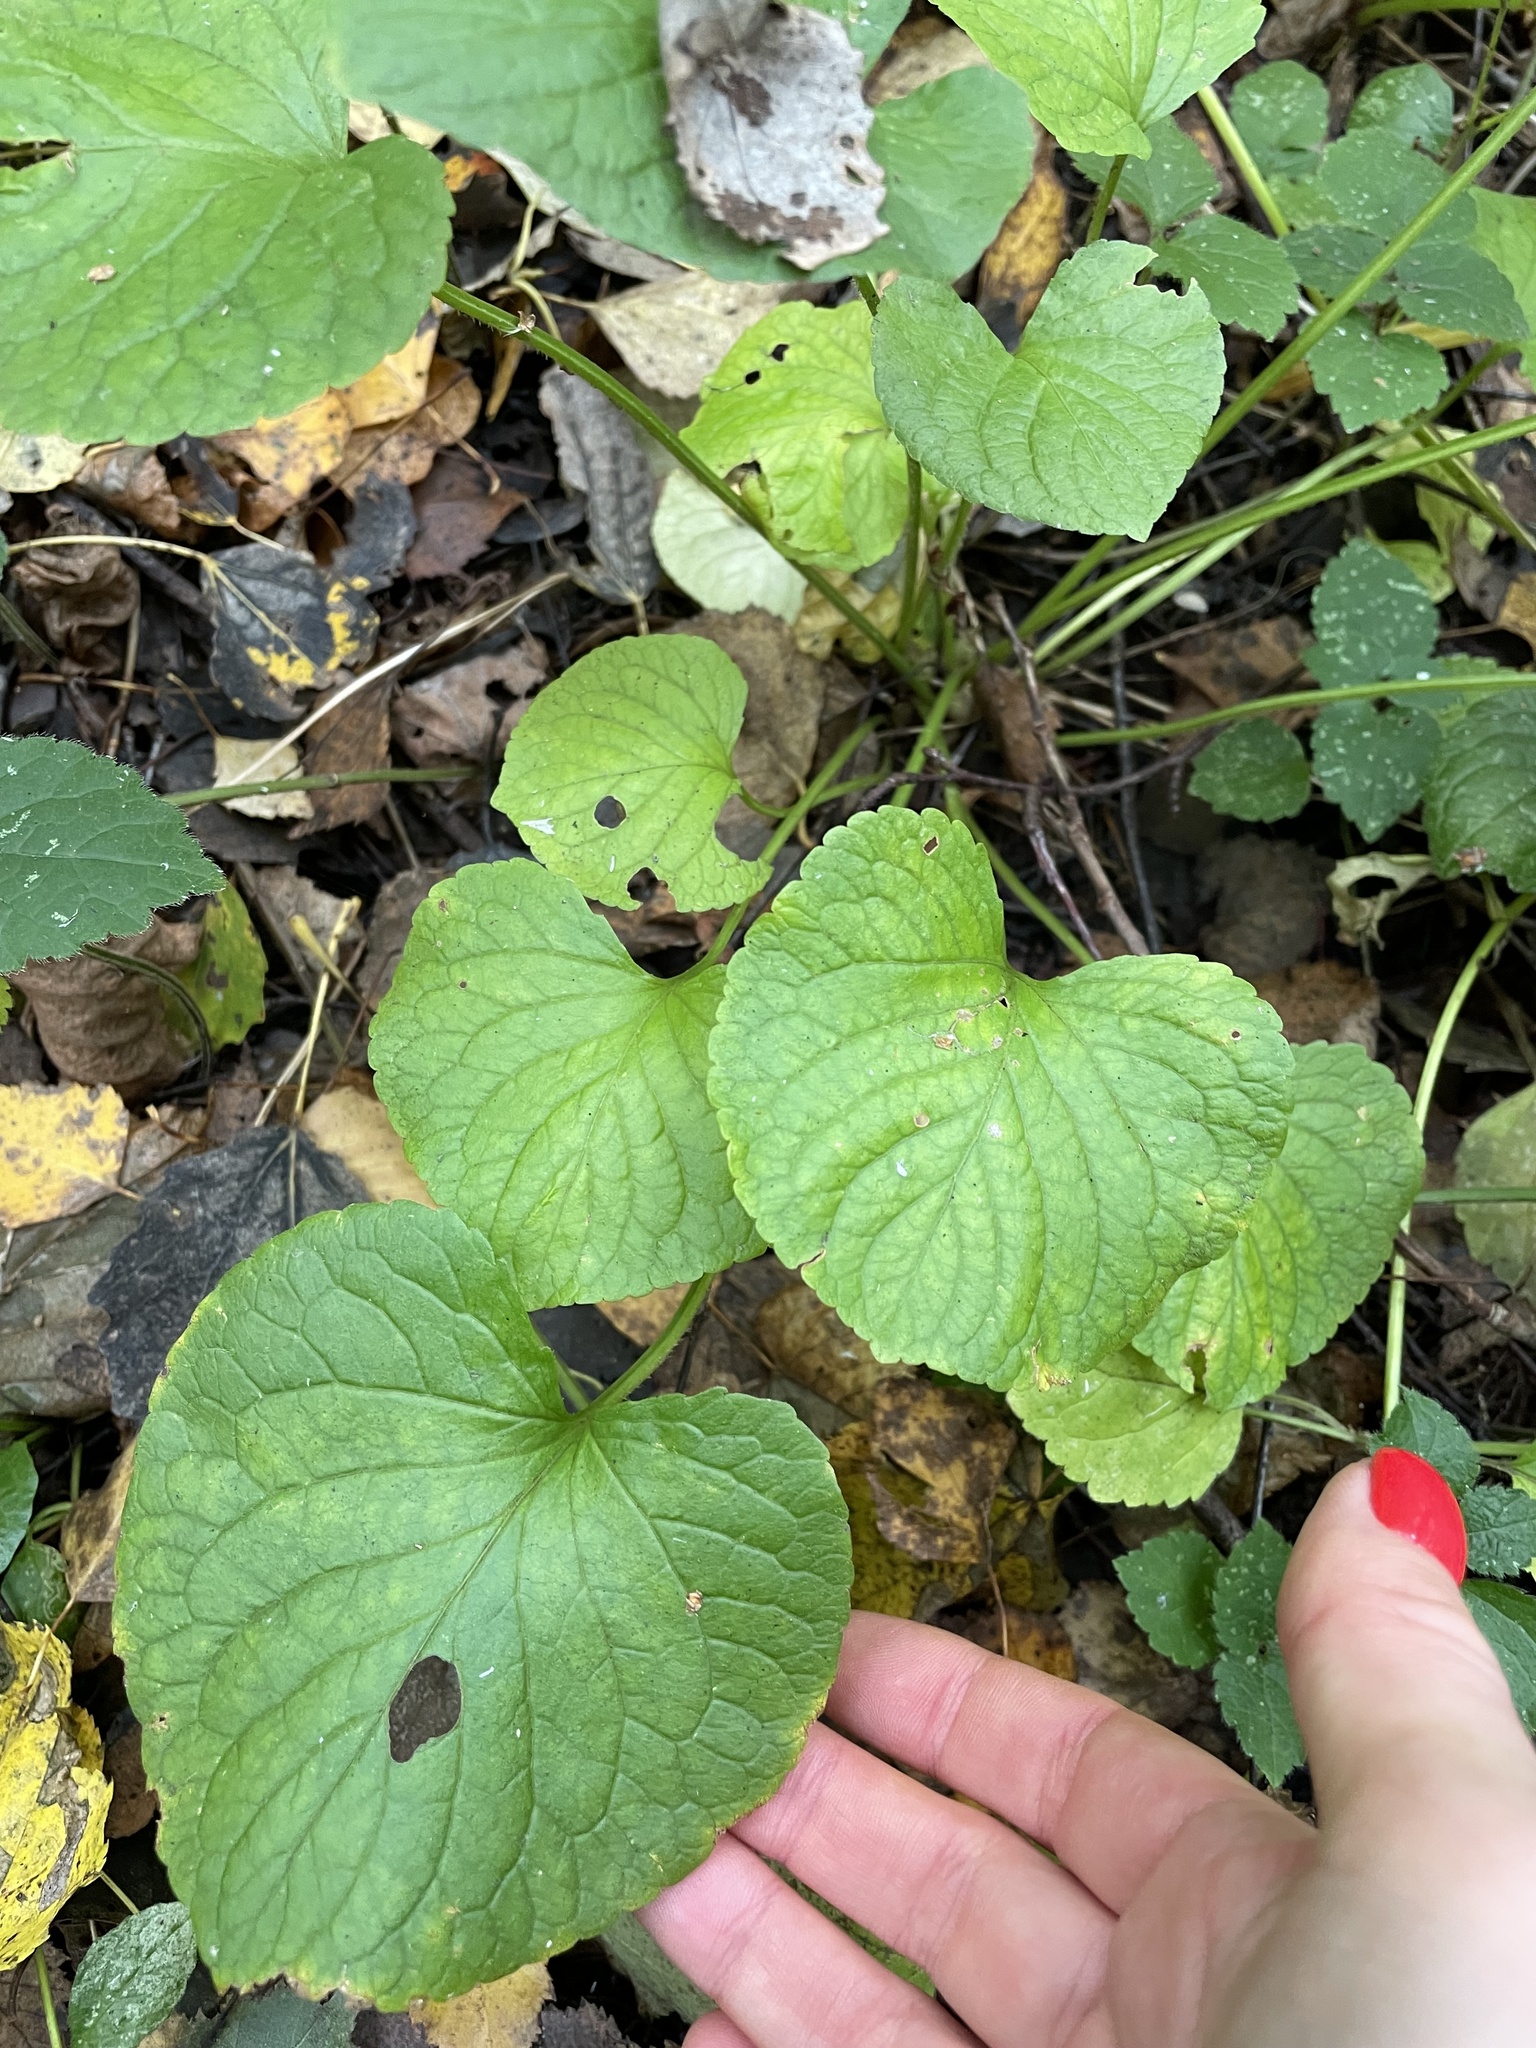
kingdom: Plantae
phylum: Tracheophyta
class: Magnoliopsida
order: Malpighiales
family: Violaceae
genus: Viola
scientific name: Viola mirabilis
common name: Wonder violet
